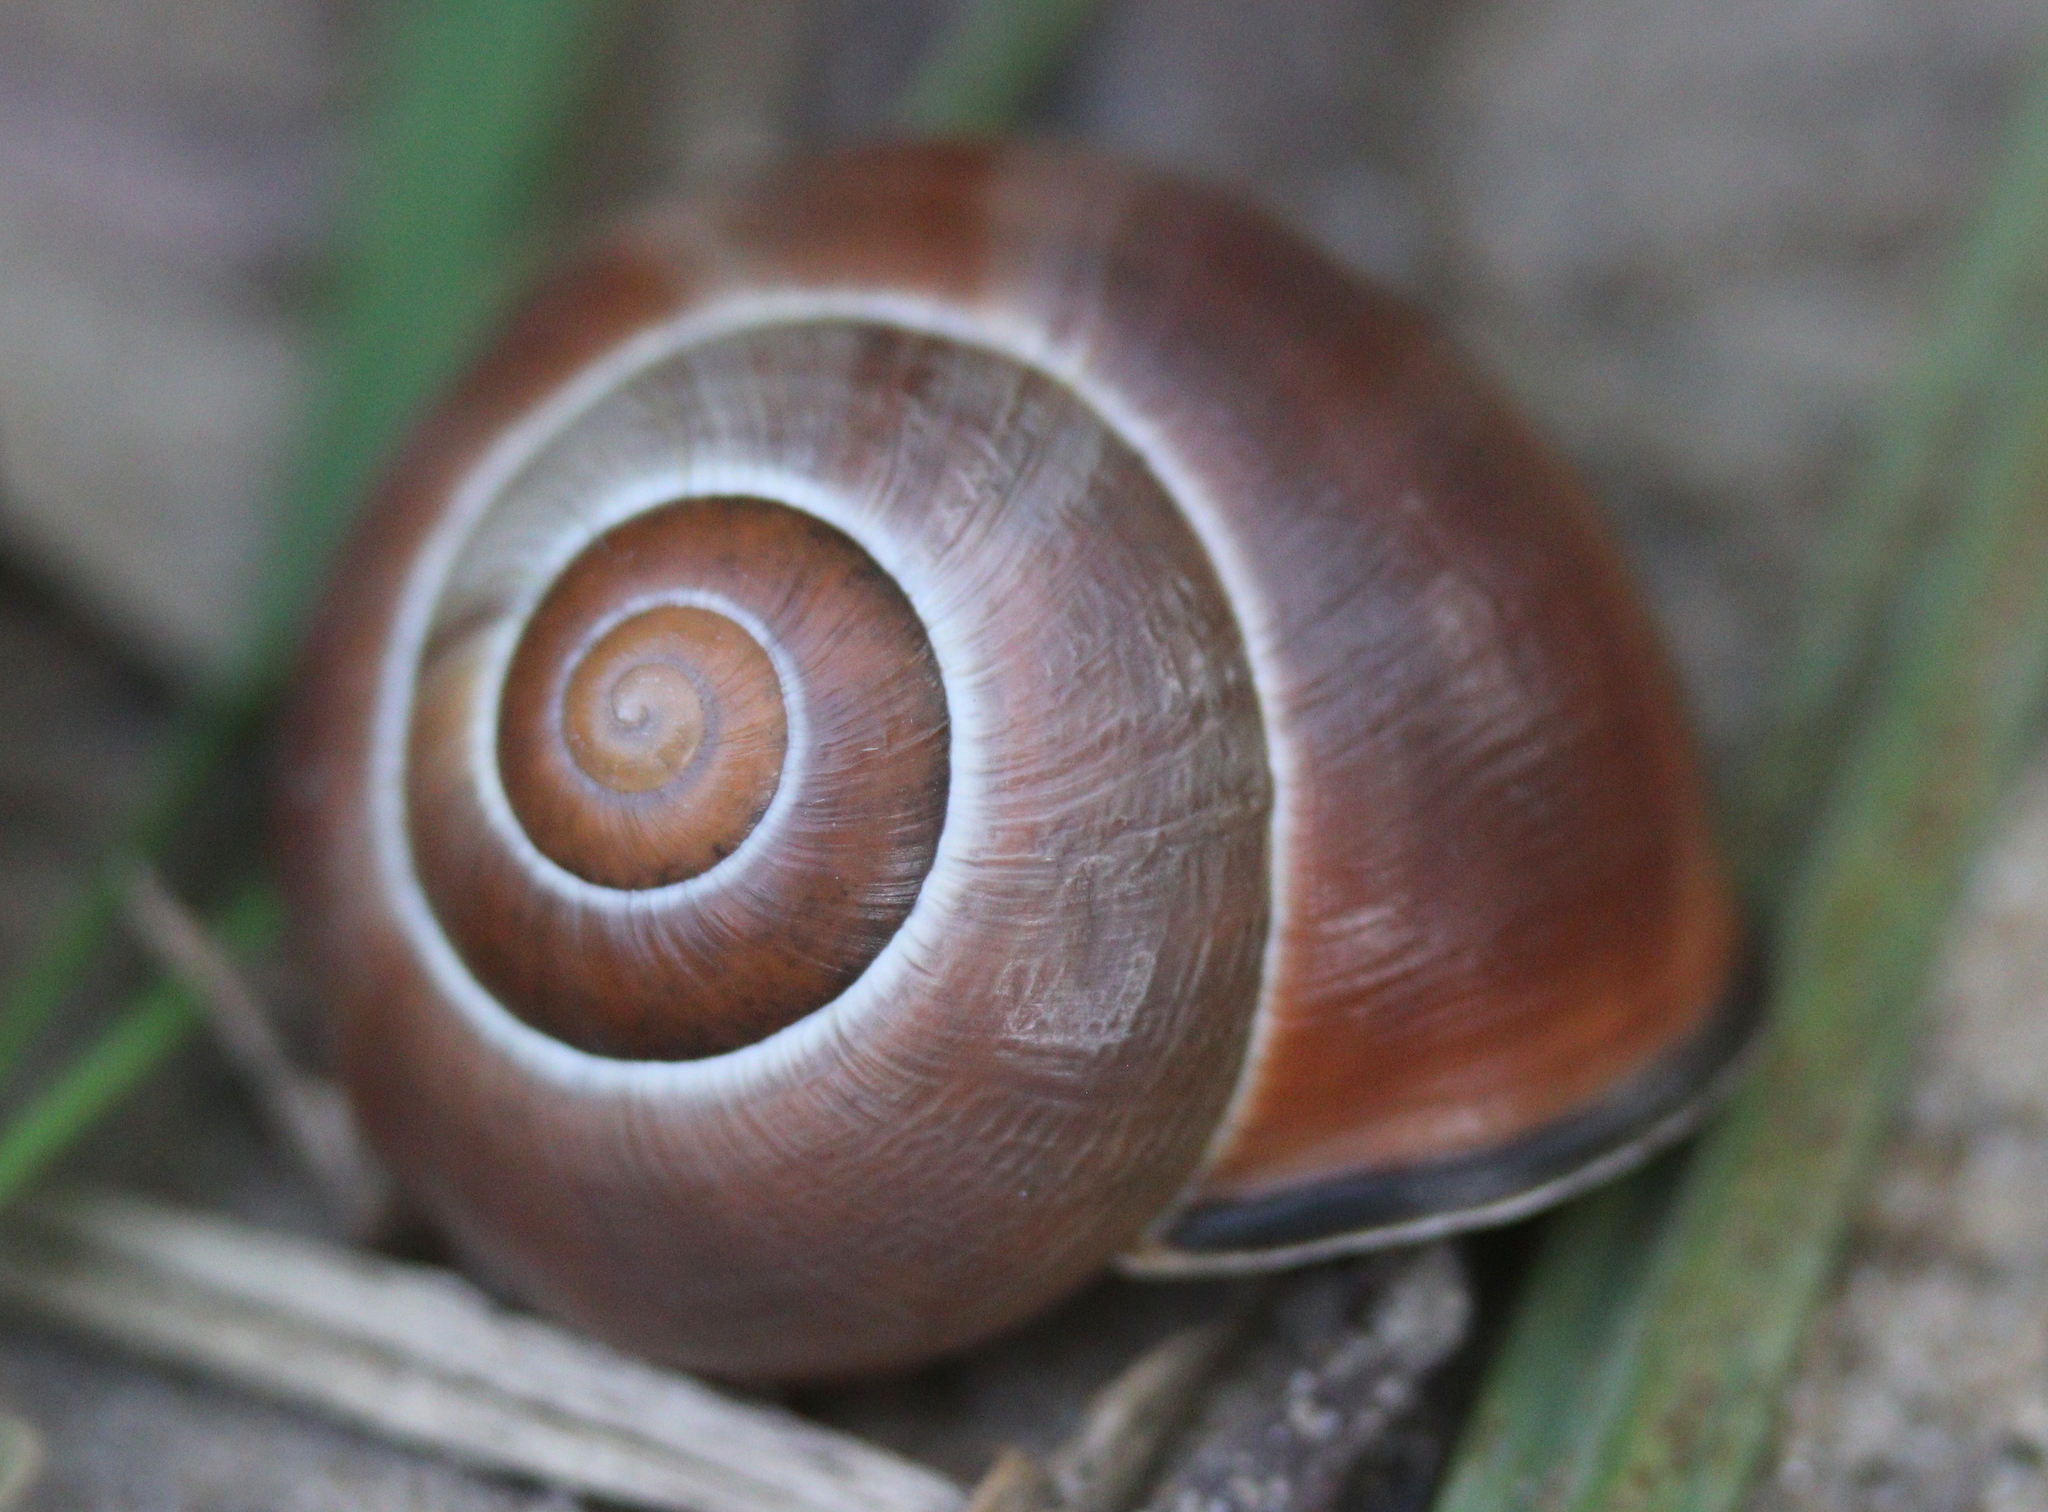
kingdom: Animalia
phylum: Mollusca
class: Gastropoda
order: Stylommatophora
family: Helicidae
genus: Cepaea
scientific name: Cepaea nemoralis
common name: Grovesnail
